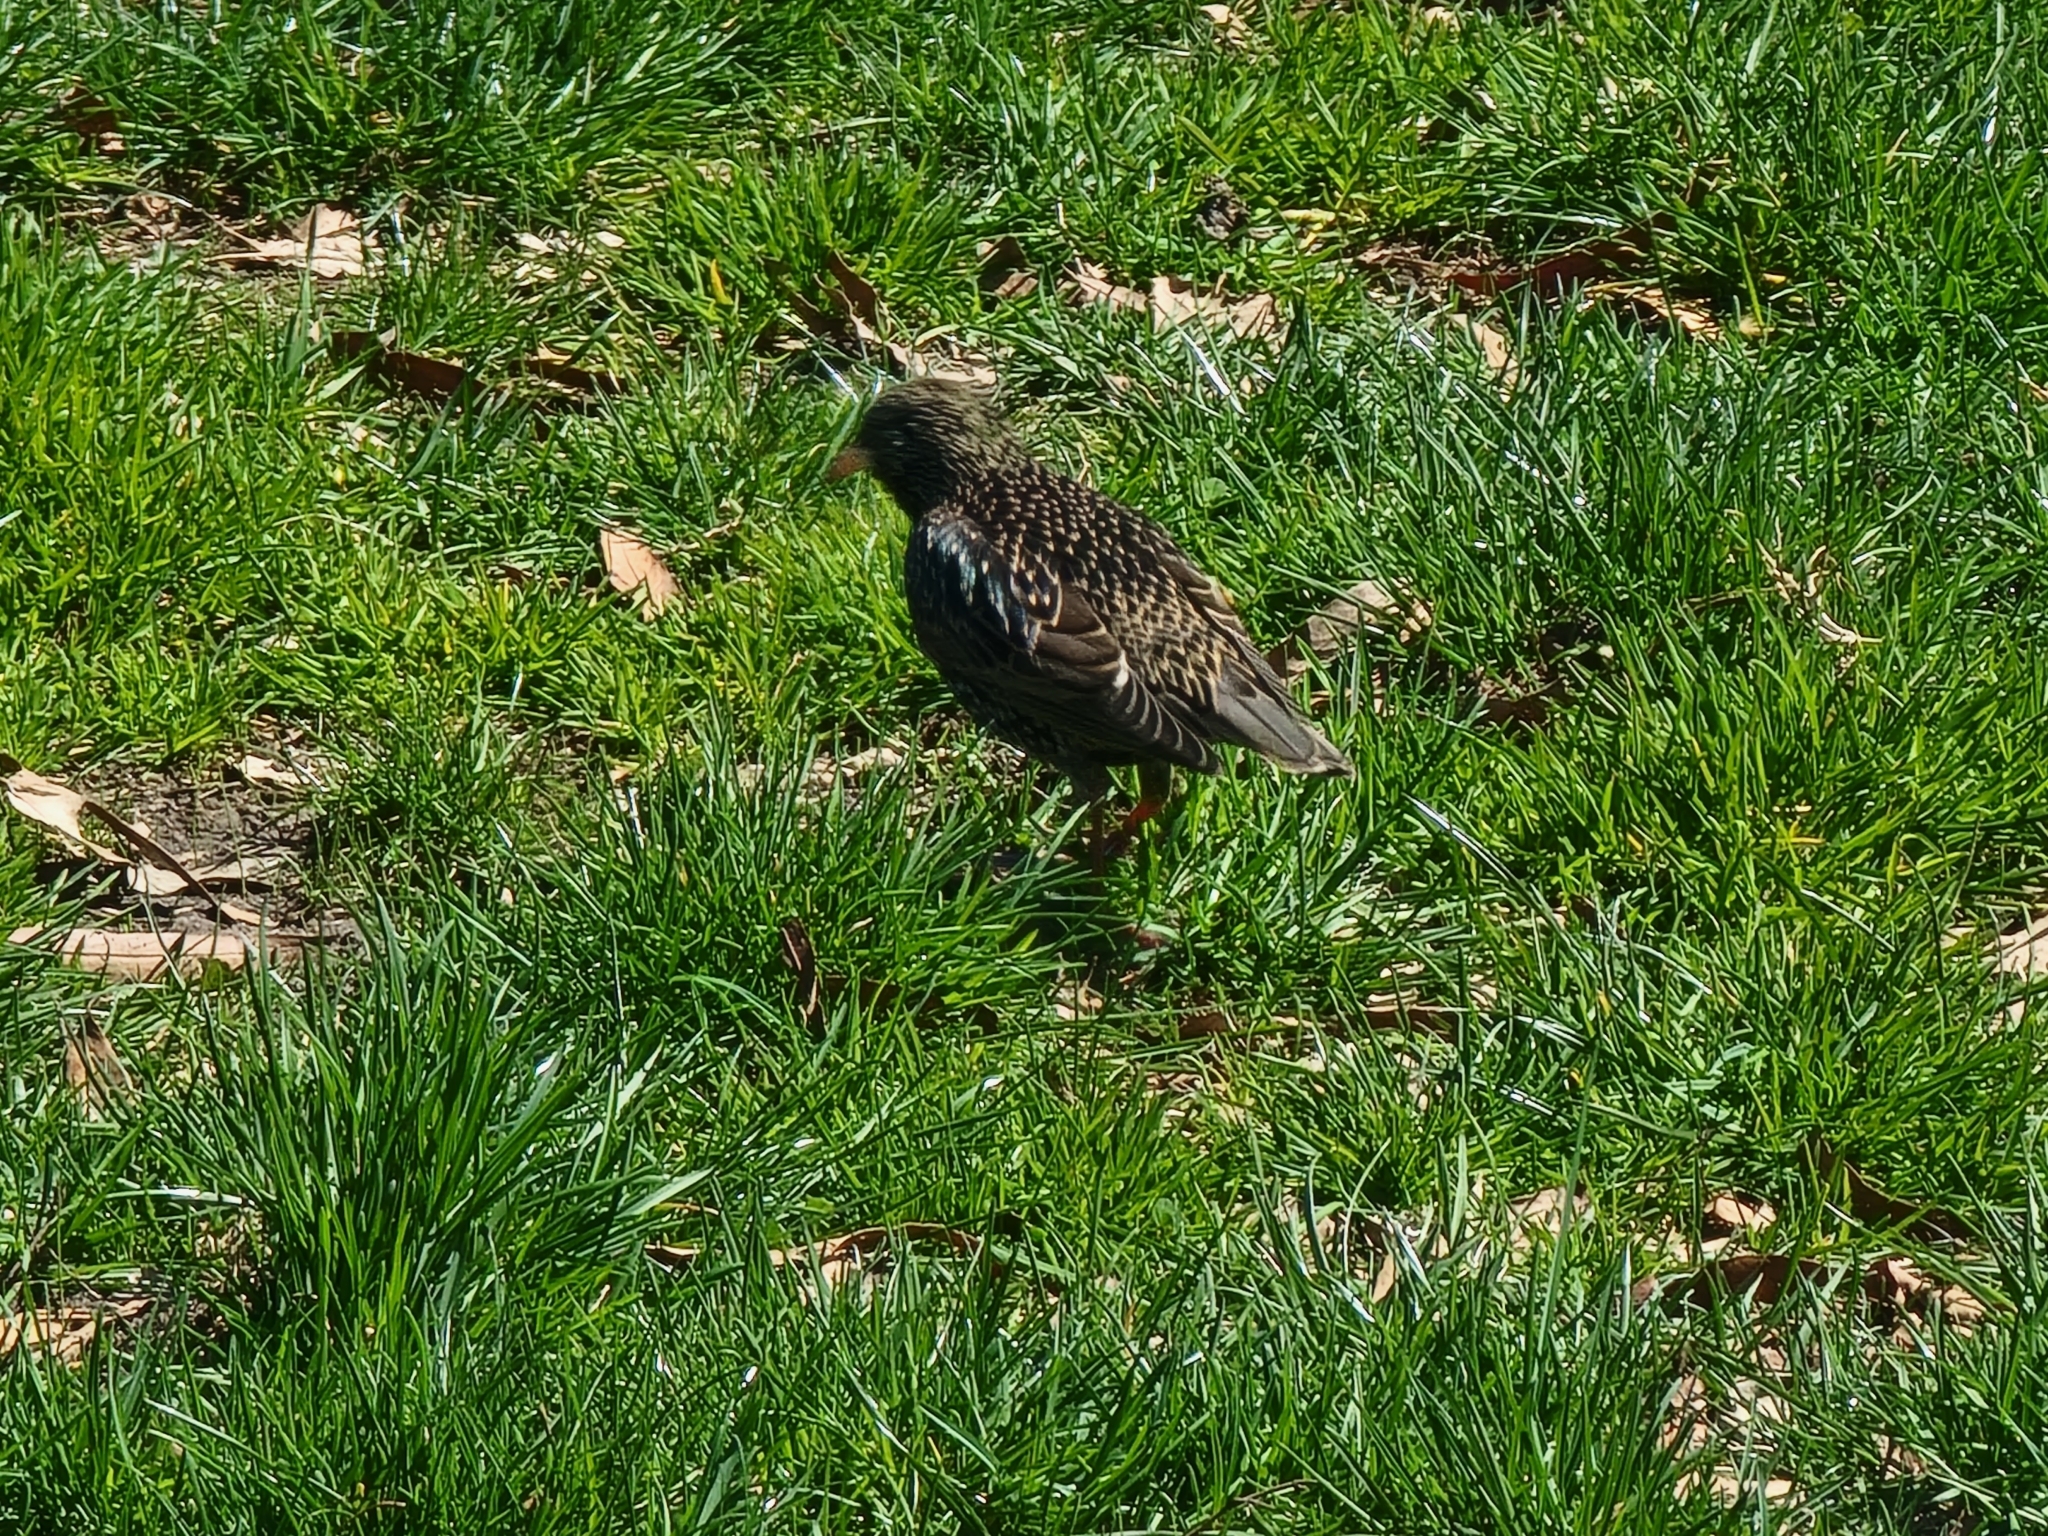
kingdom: Animalia
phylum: Chordata
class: Aves
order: Passeriformes
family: Sturnidae
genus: Sturnus
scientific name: Sturnus vulgaris
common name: Common starling
